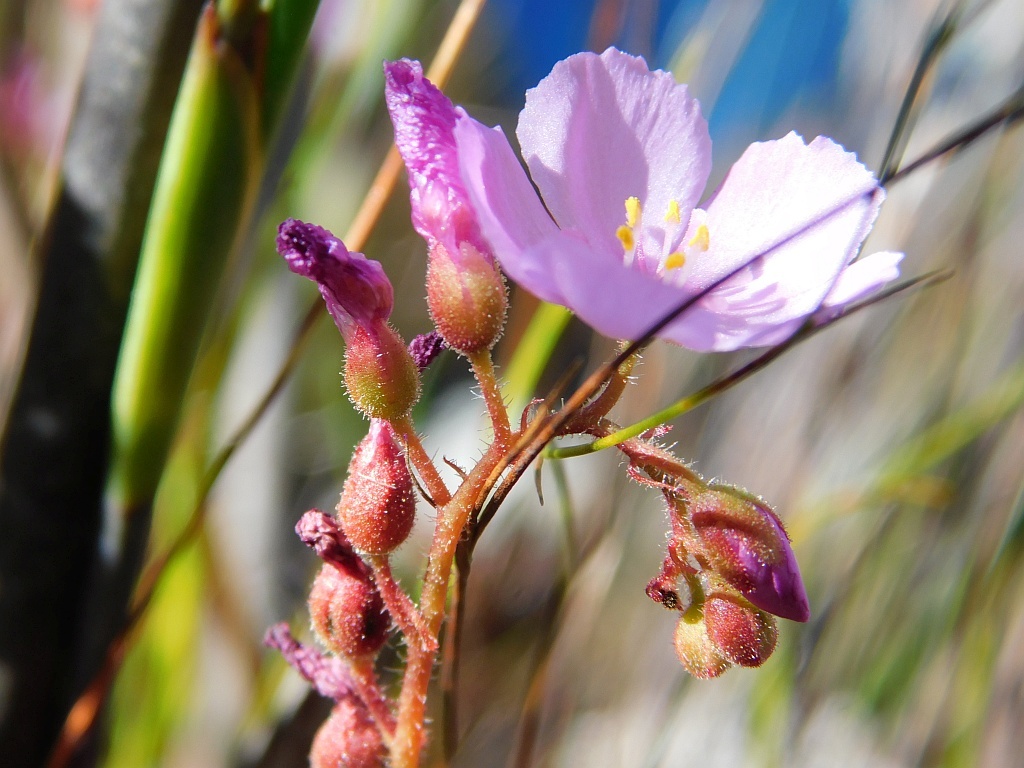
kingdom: Plantae
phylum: Tracheophyta
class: Magnoliopsida
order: Caryophyllales
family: Droseraceae
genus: Drosera
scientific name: Drosera capensis
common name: Cape sundew
